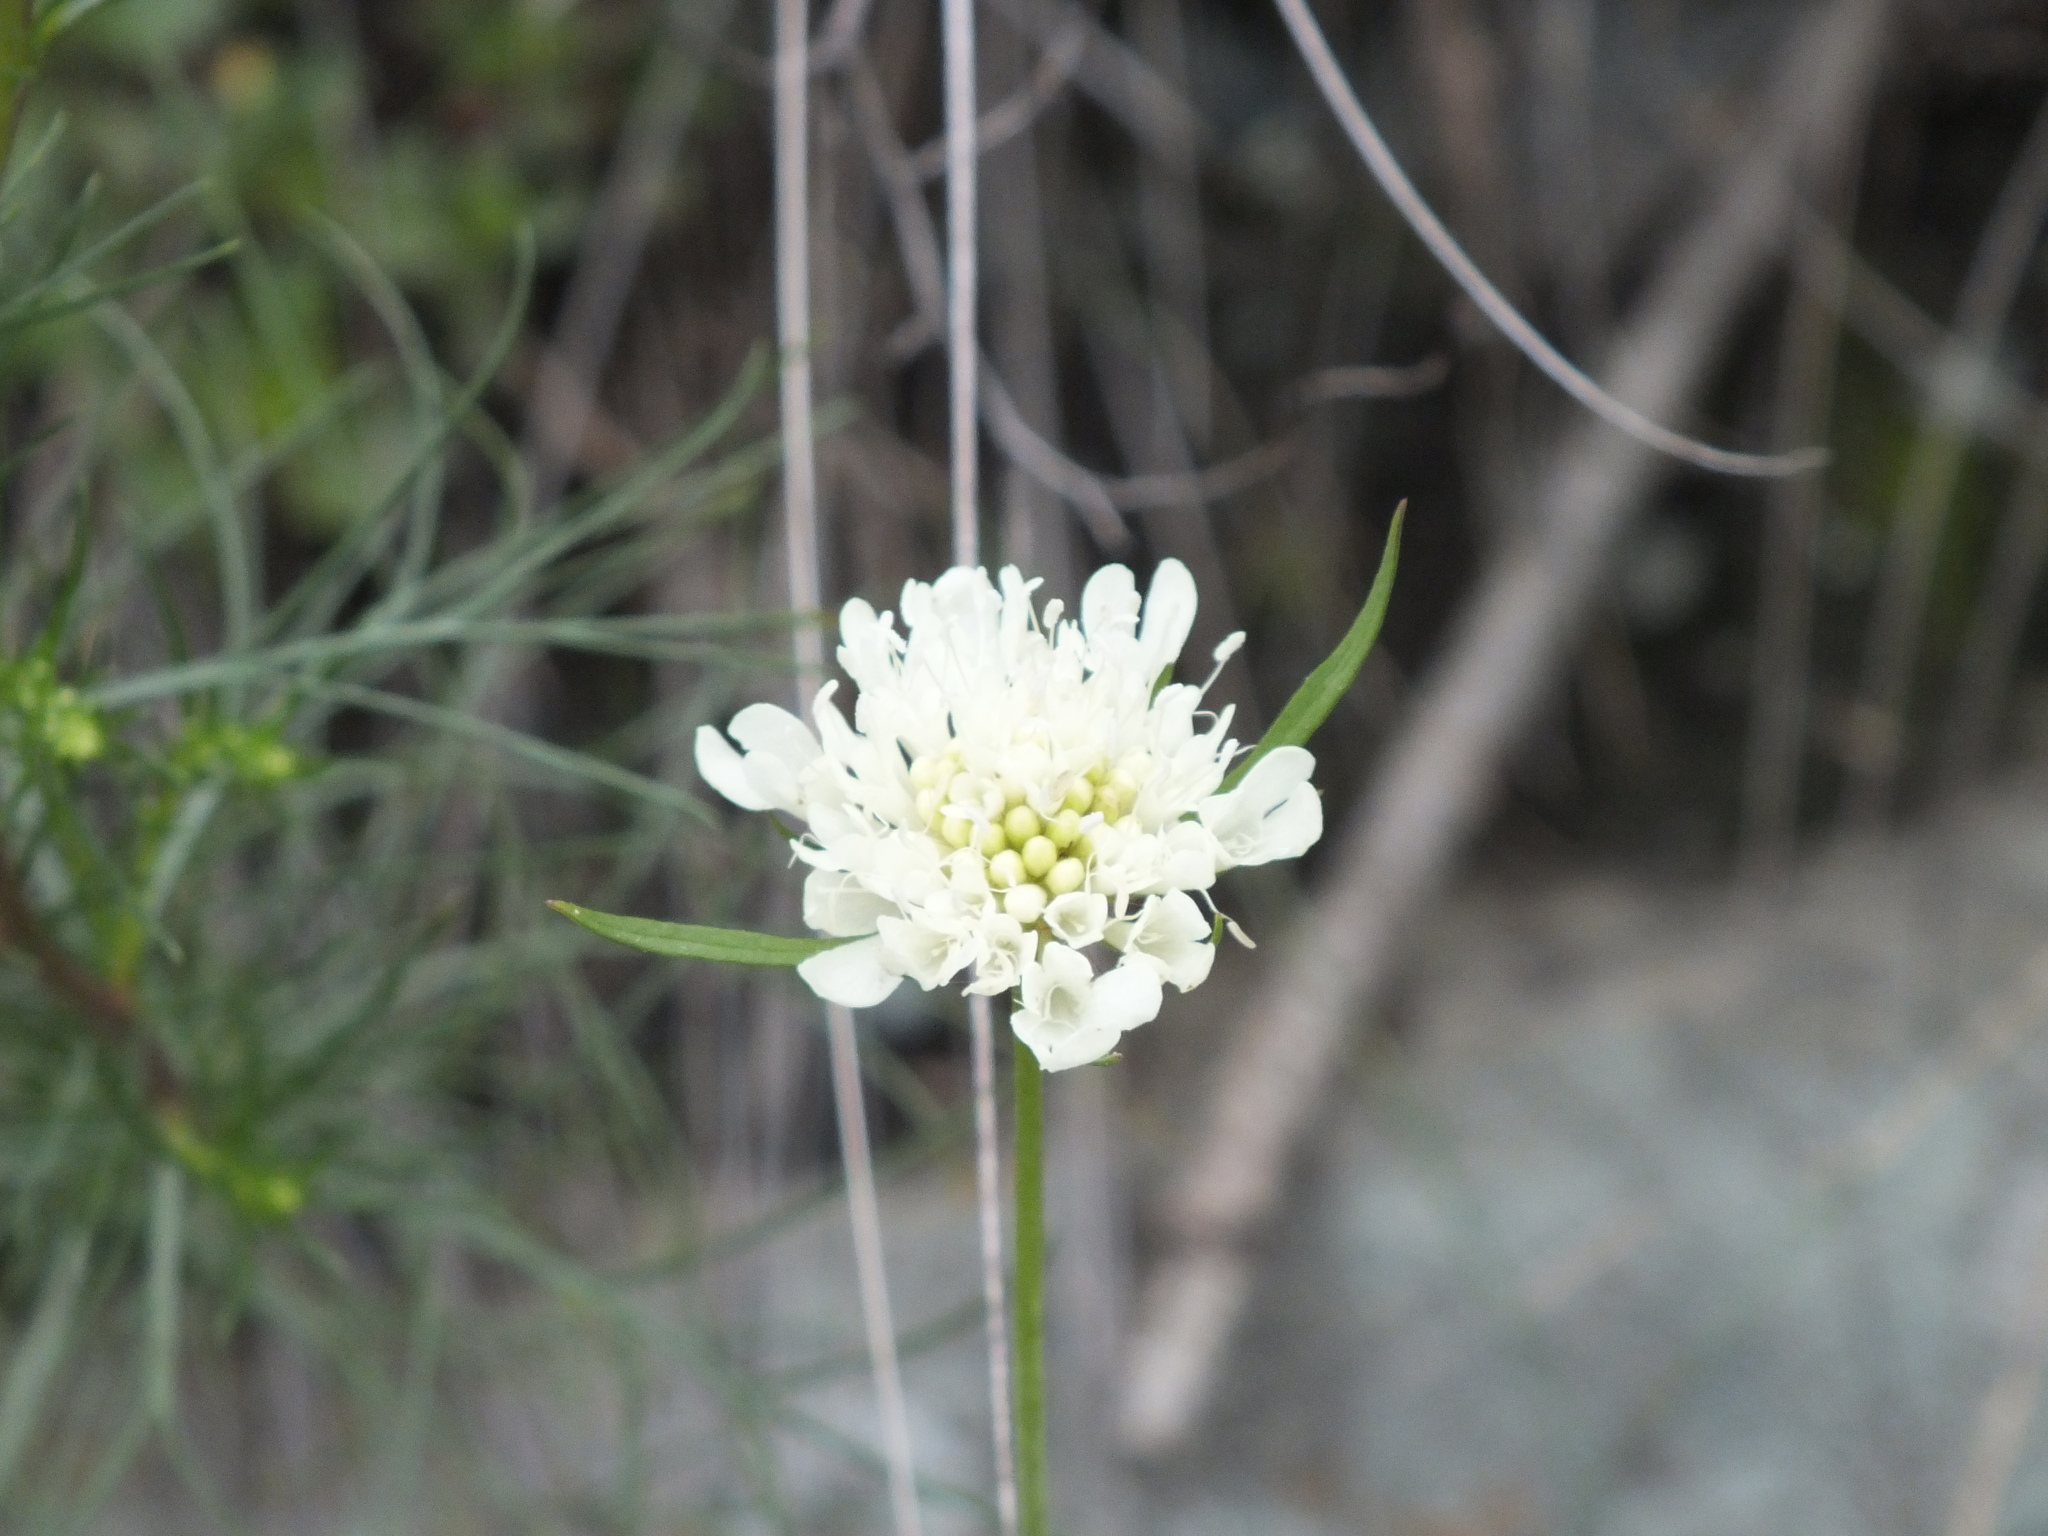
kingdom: Plantae
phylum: Tracheophyta
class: Magnoliopsida
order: Dipsacales
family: Caprifoliaceae
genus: Scabiosa
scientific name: Scabiosa ochroleuca
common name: Cream pincushions
